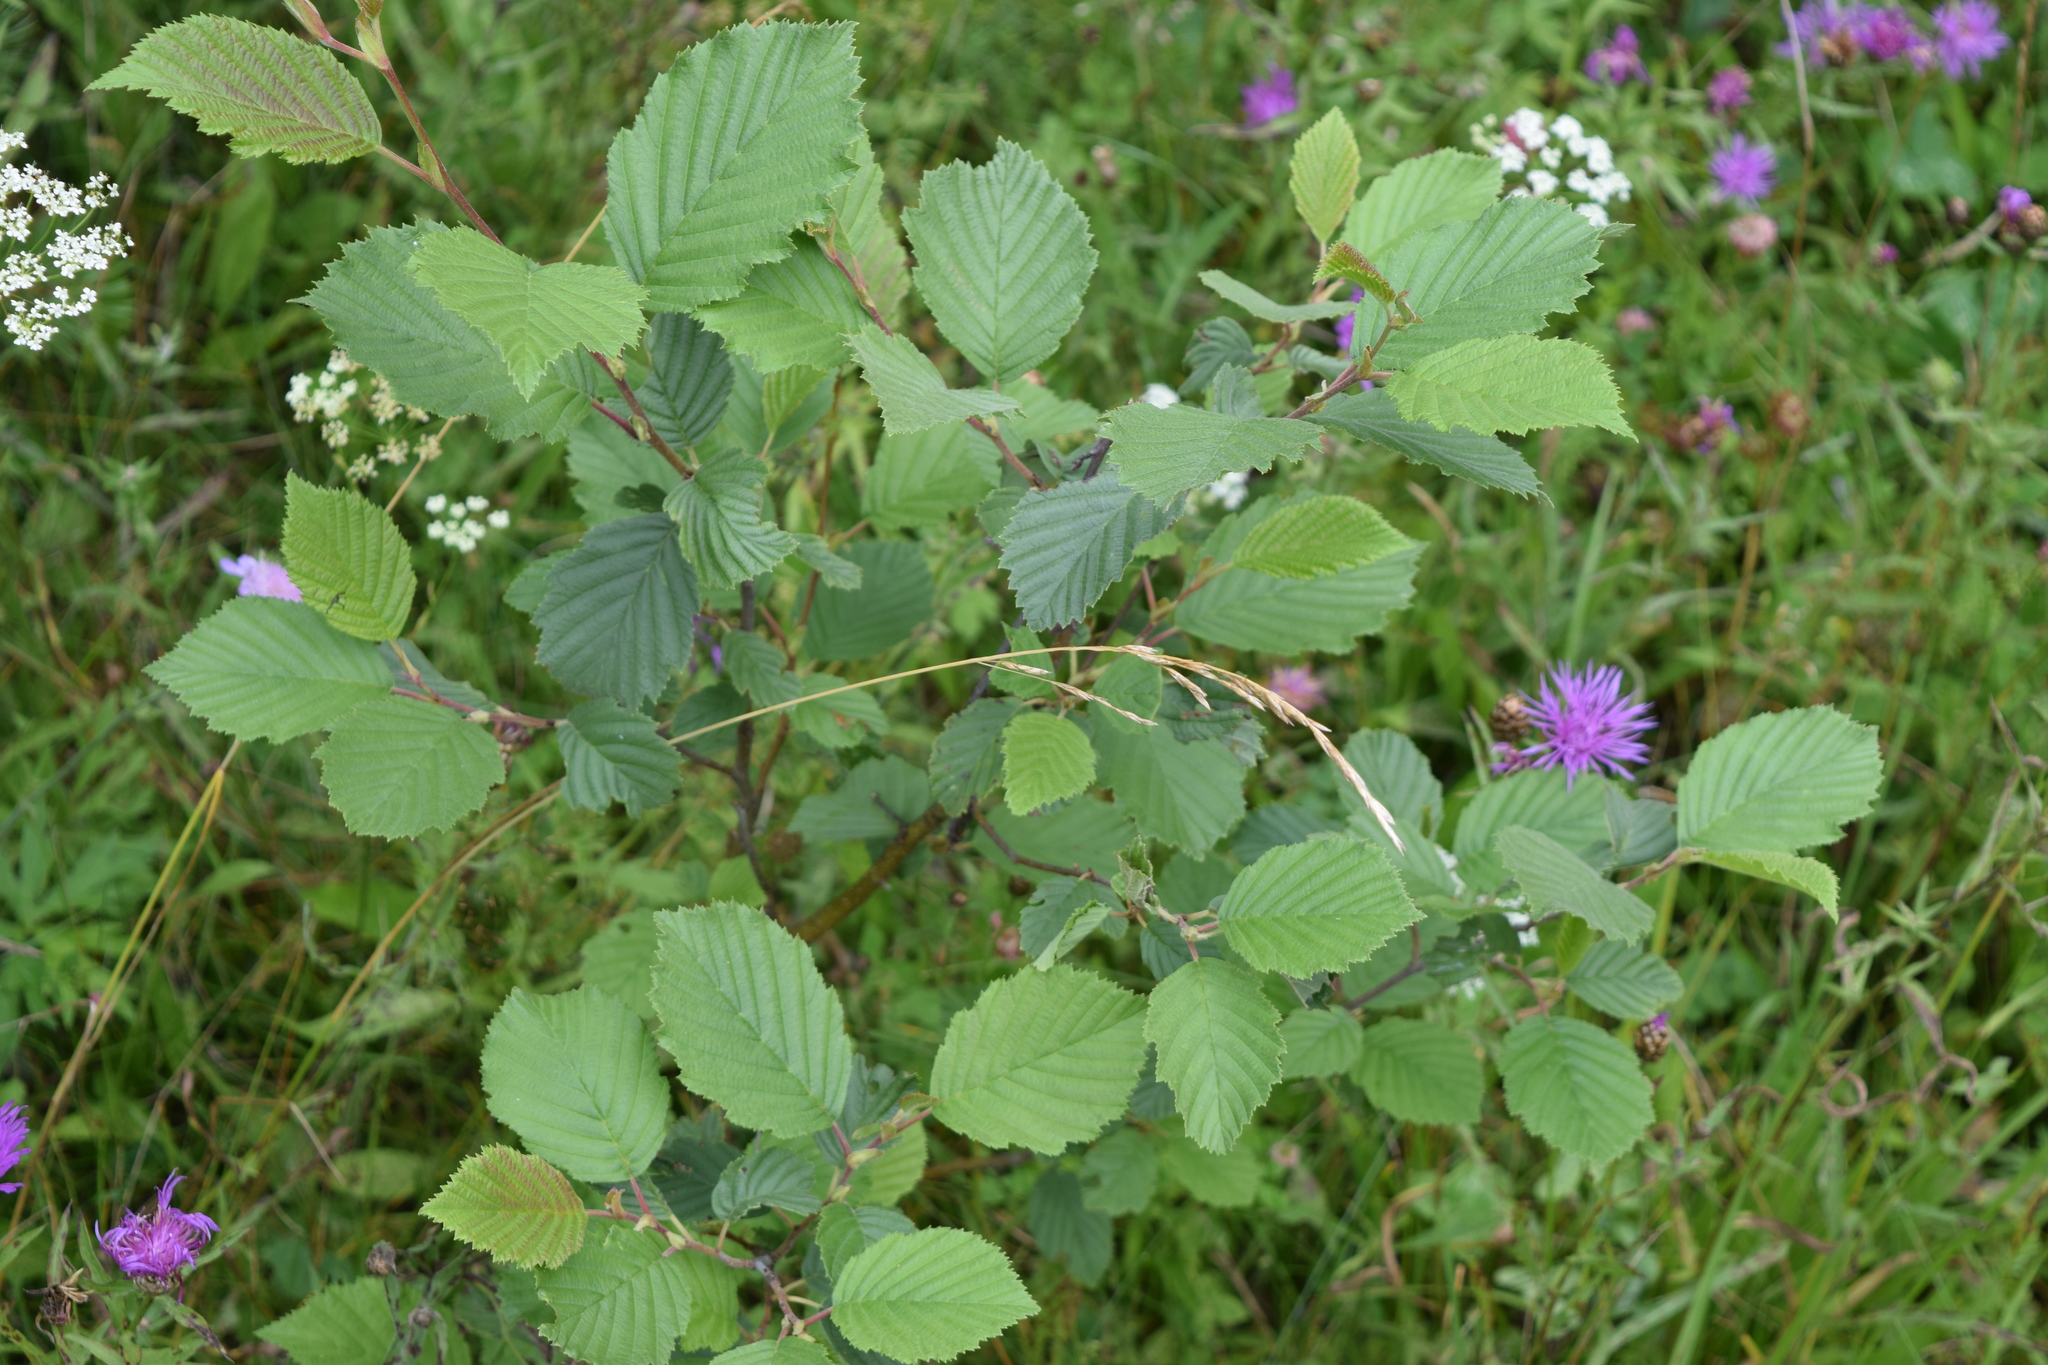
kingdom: Plantae
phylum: Tracheophyta
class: Magnoliopsida
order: Fagales
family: Betulaceae
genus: Alnus
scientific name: Alnus incana
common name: Grey alder
